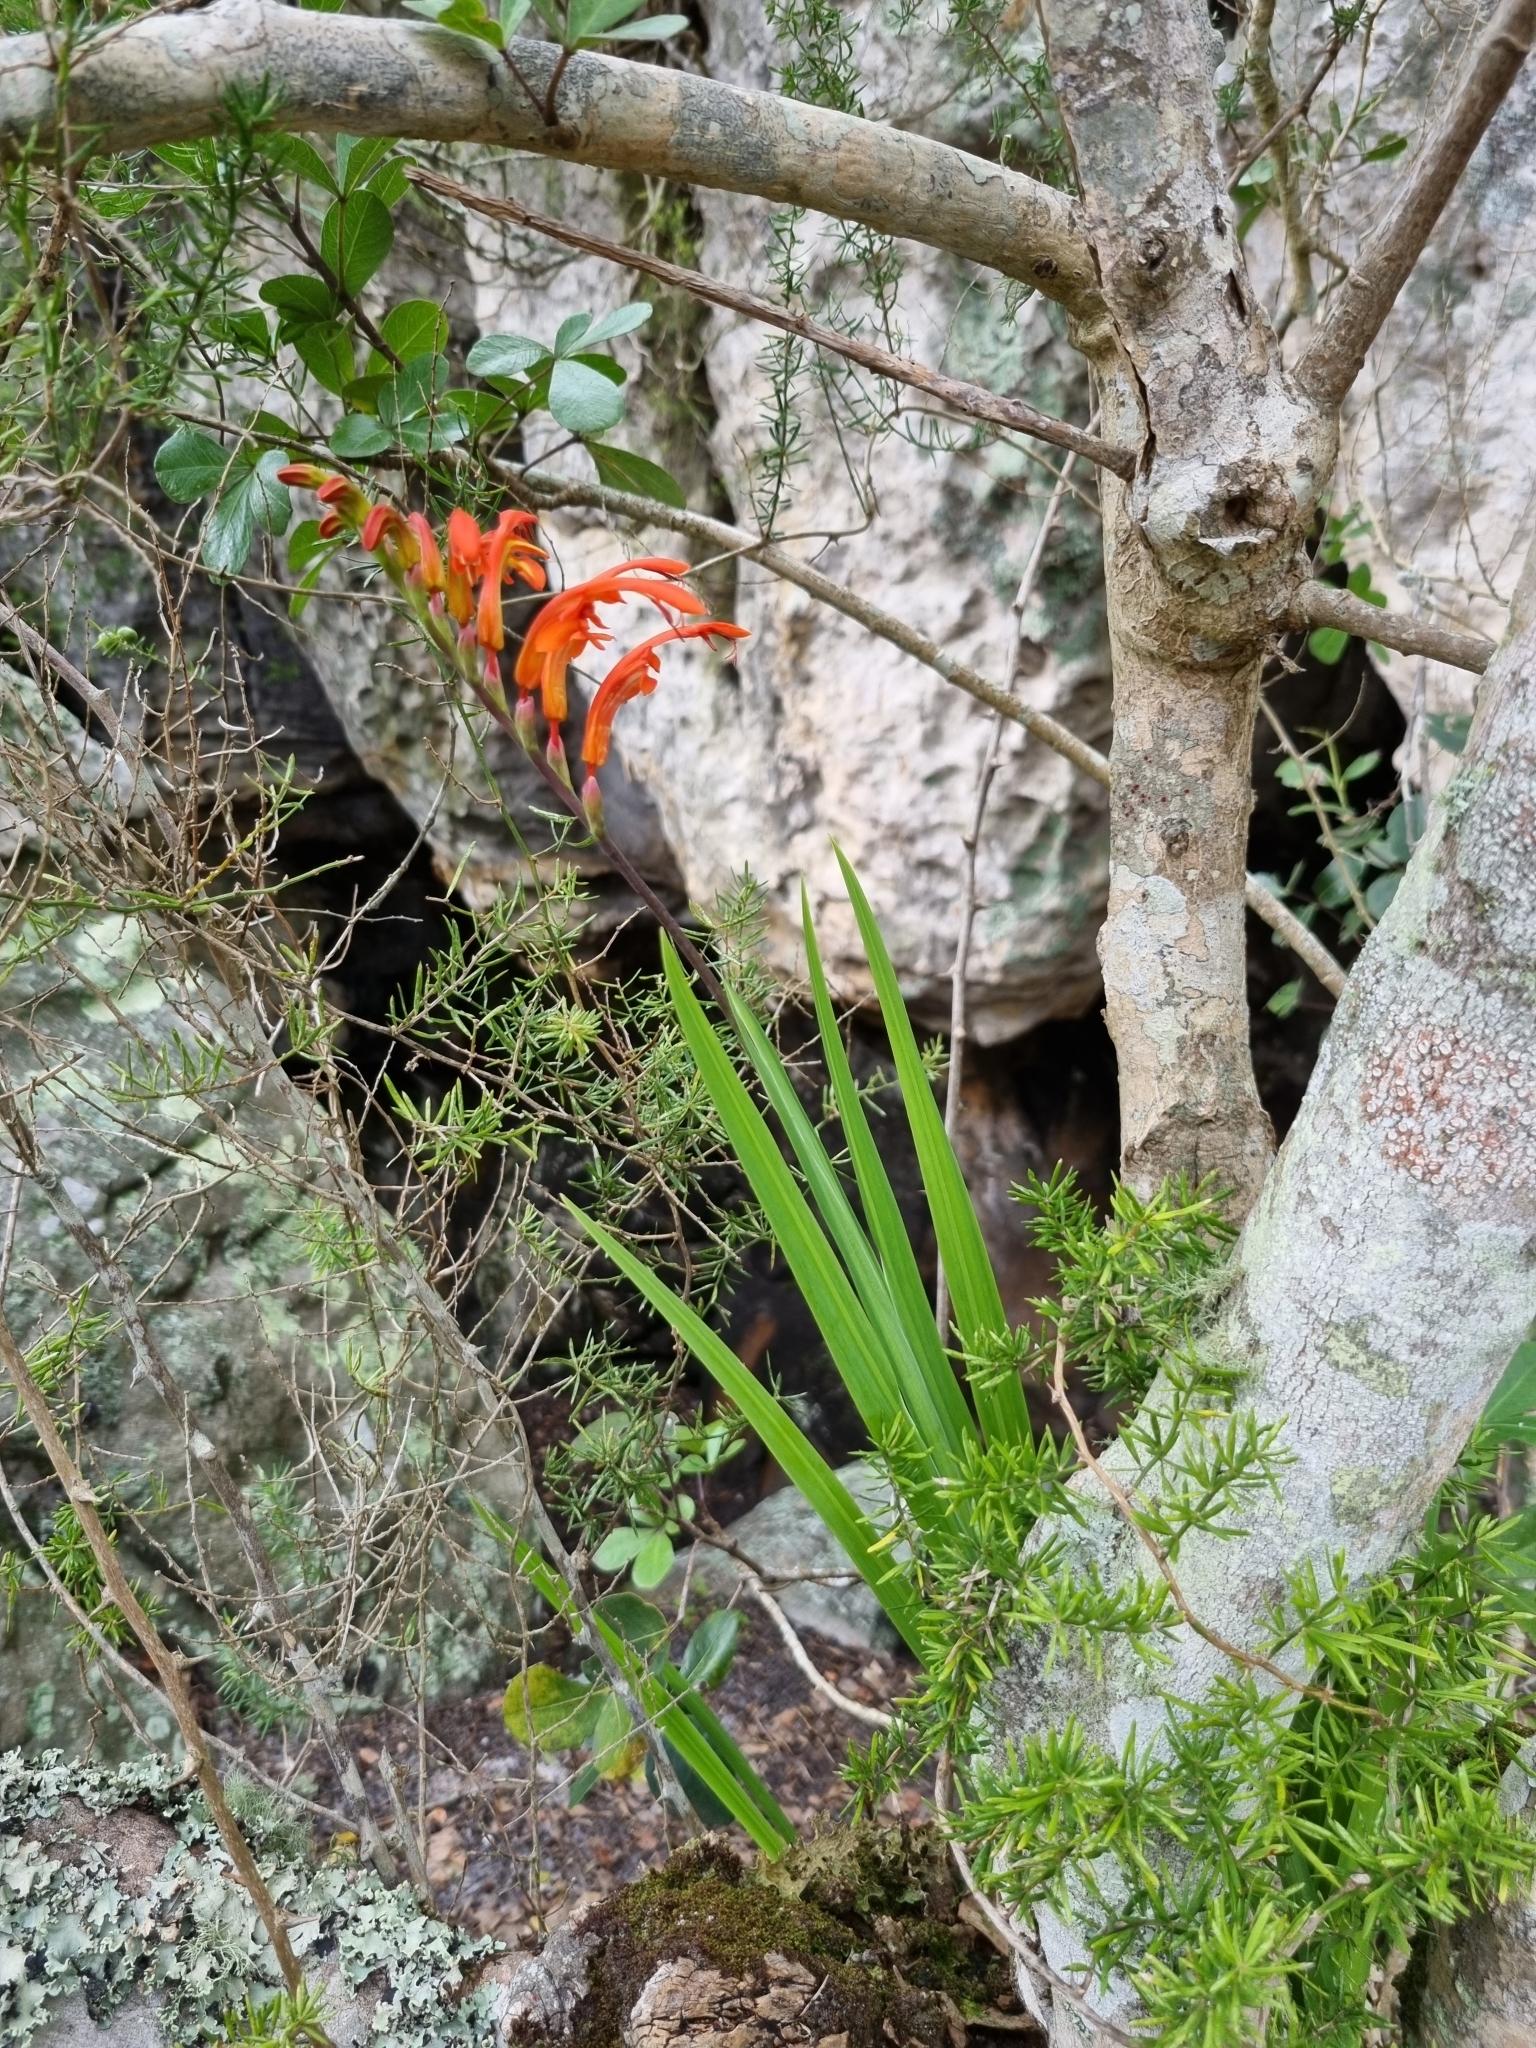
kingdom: Plantae
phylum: Tracheophyta
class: Liliopsida
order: Asparagales
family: Iridaceae
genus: Chasmanthe
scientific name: Chasmanthe aethiopica
